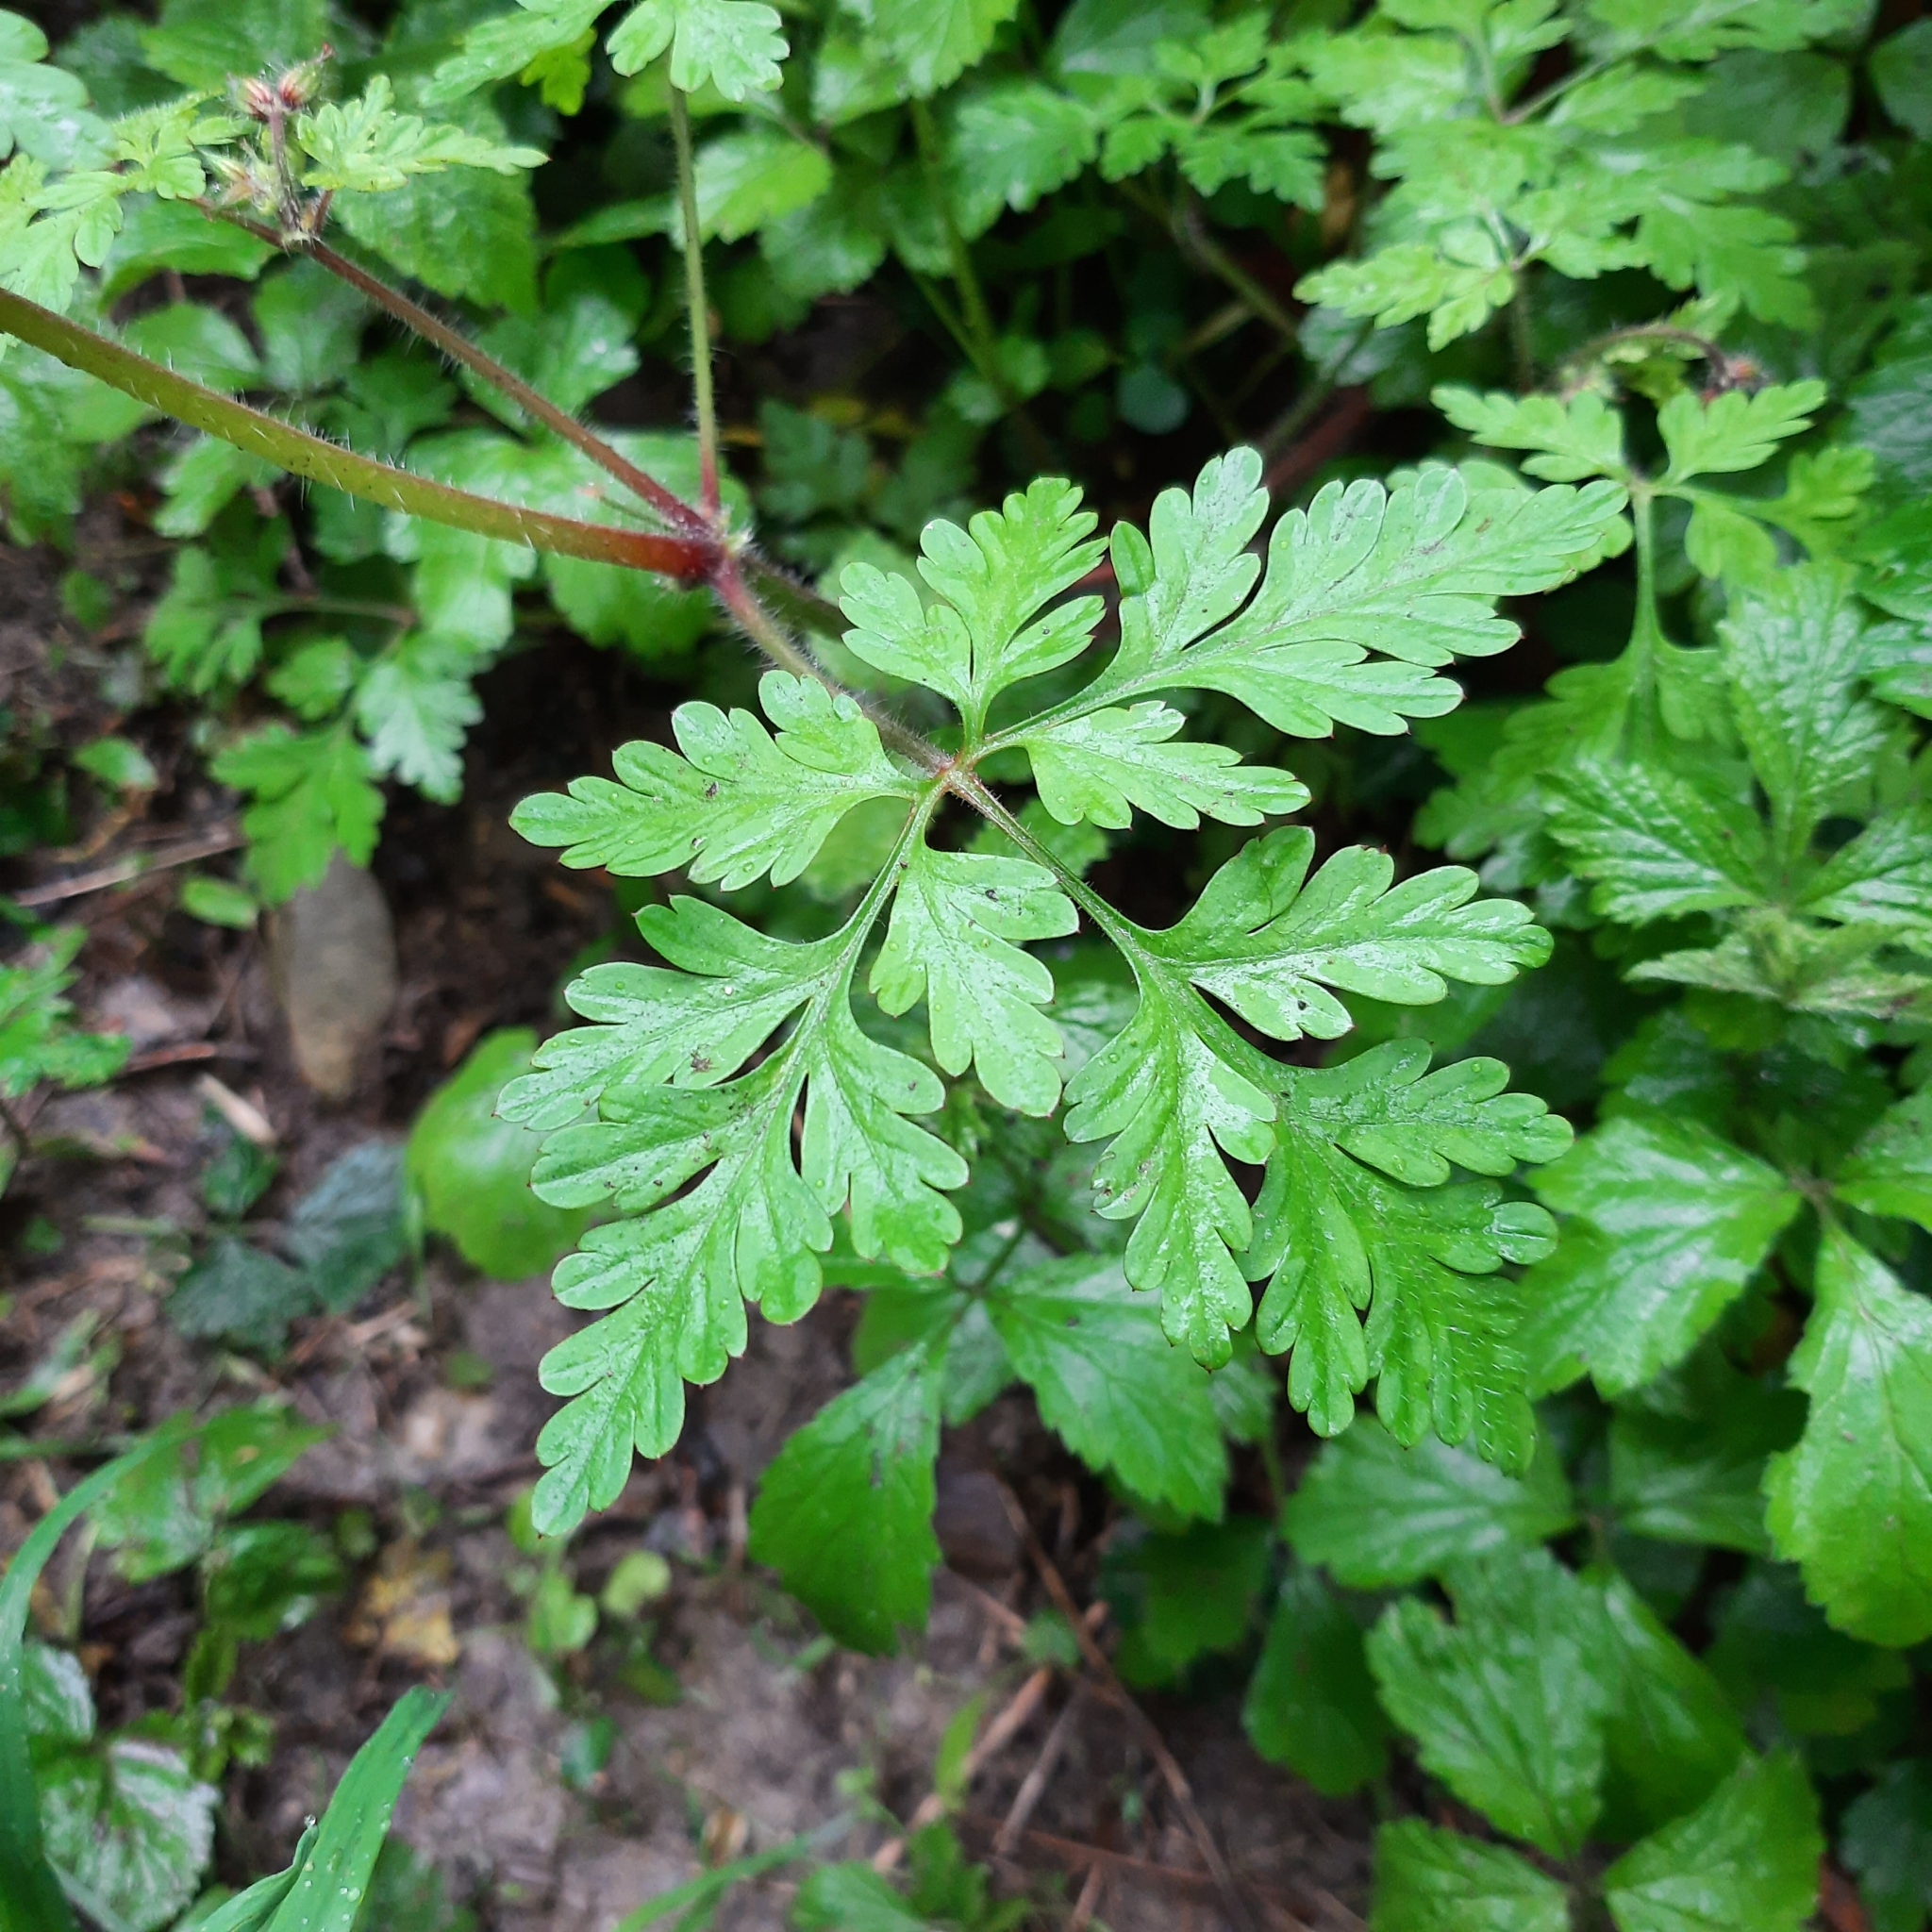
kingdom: Plantae
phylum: Tracheophyta
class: Magnoliopsida
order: Geraniales
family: Geraniaceae
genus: Geranium
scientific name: Geranium robertianum
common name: Herb-robert
